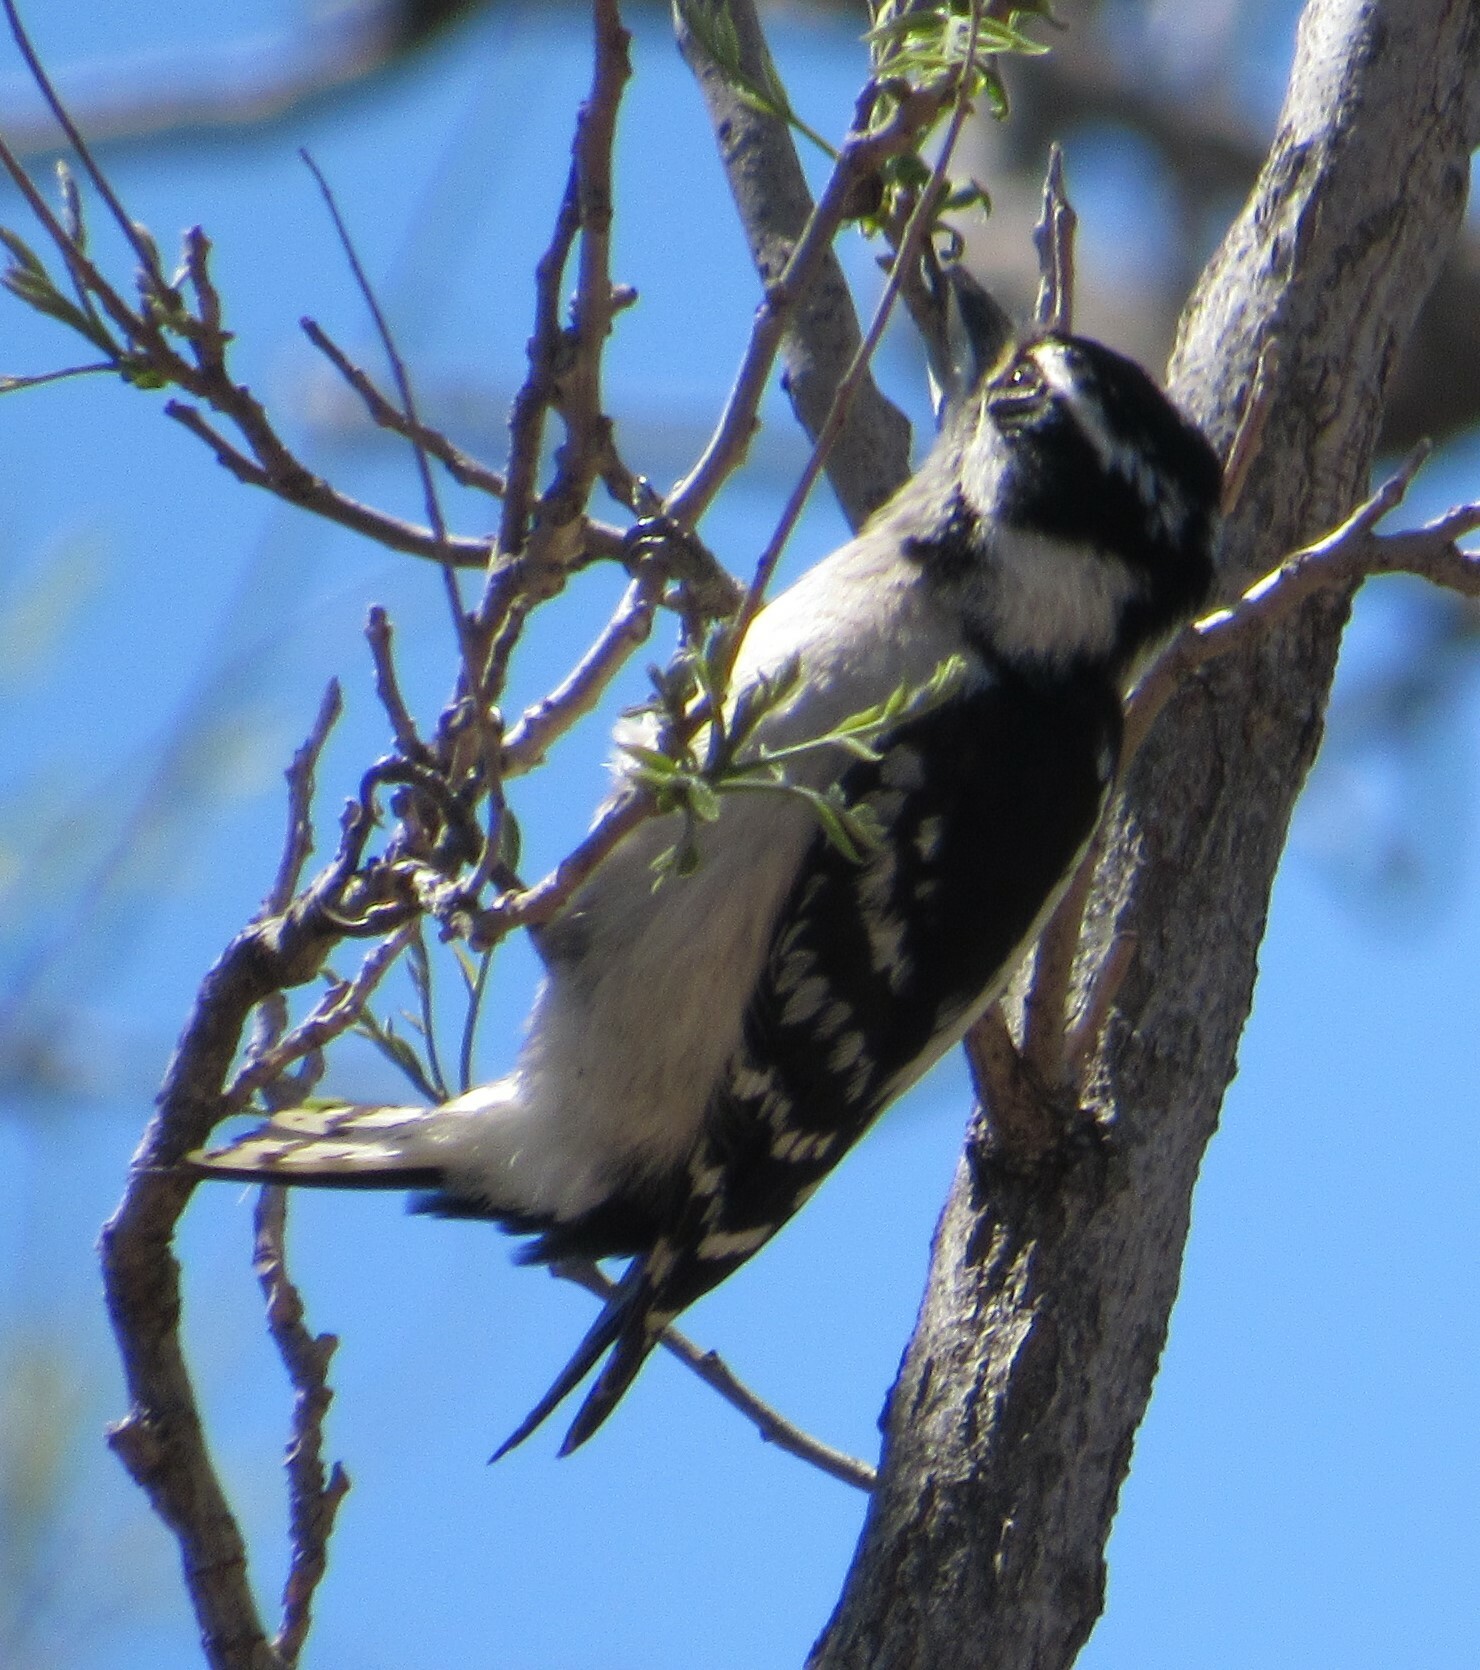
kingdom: Animalia
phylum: Chordata
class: Aves
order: Piciformes
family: Picidae
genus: Dryobates
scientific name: Dryobates pubescens
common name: Downy woodpecker
